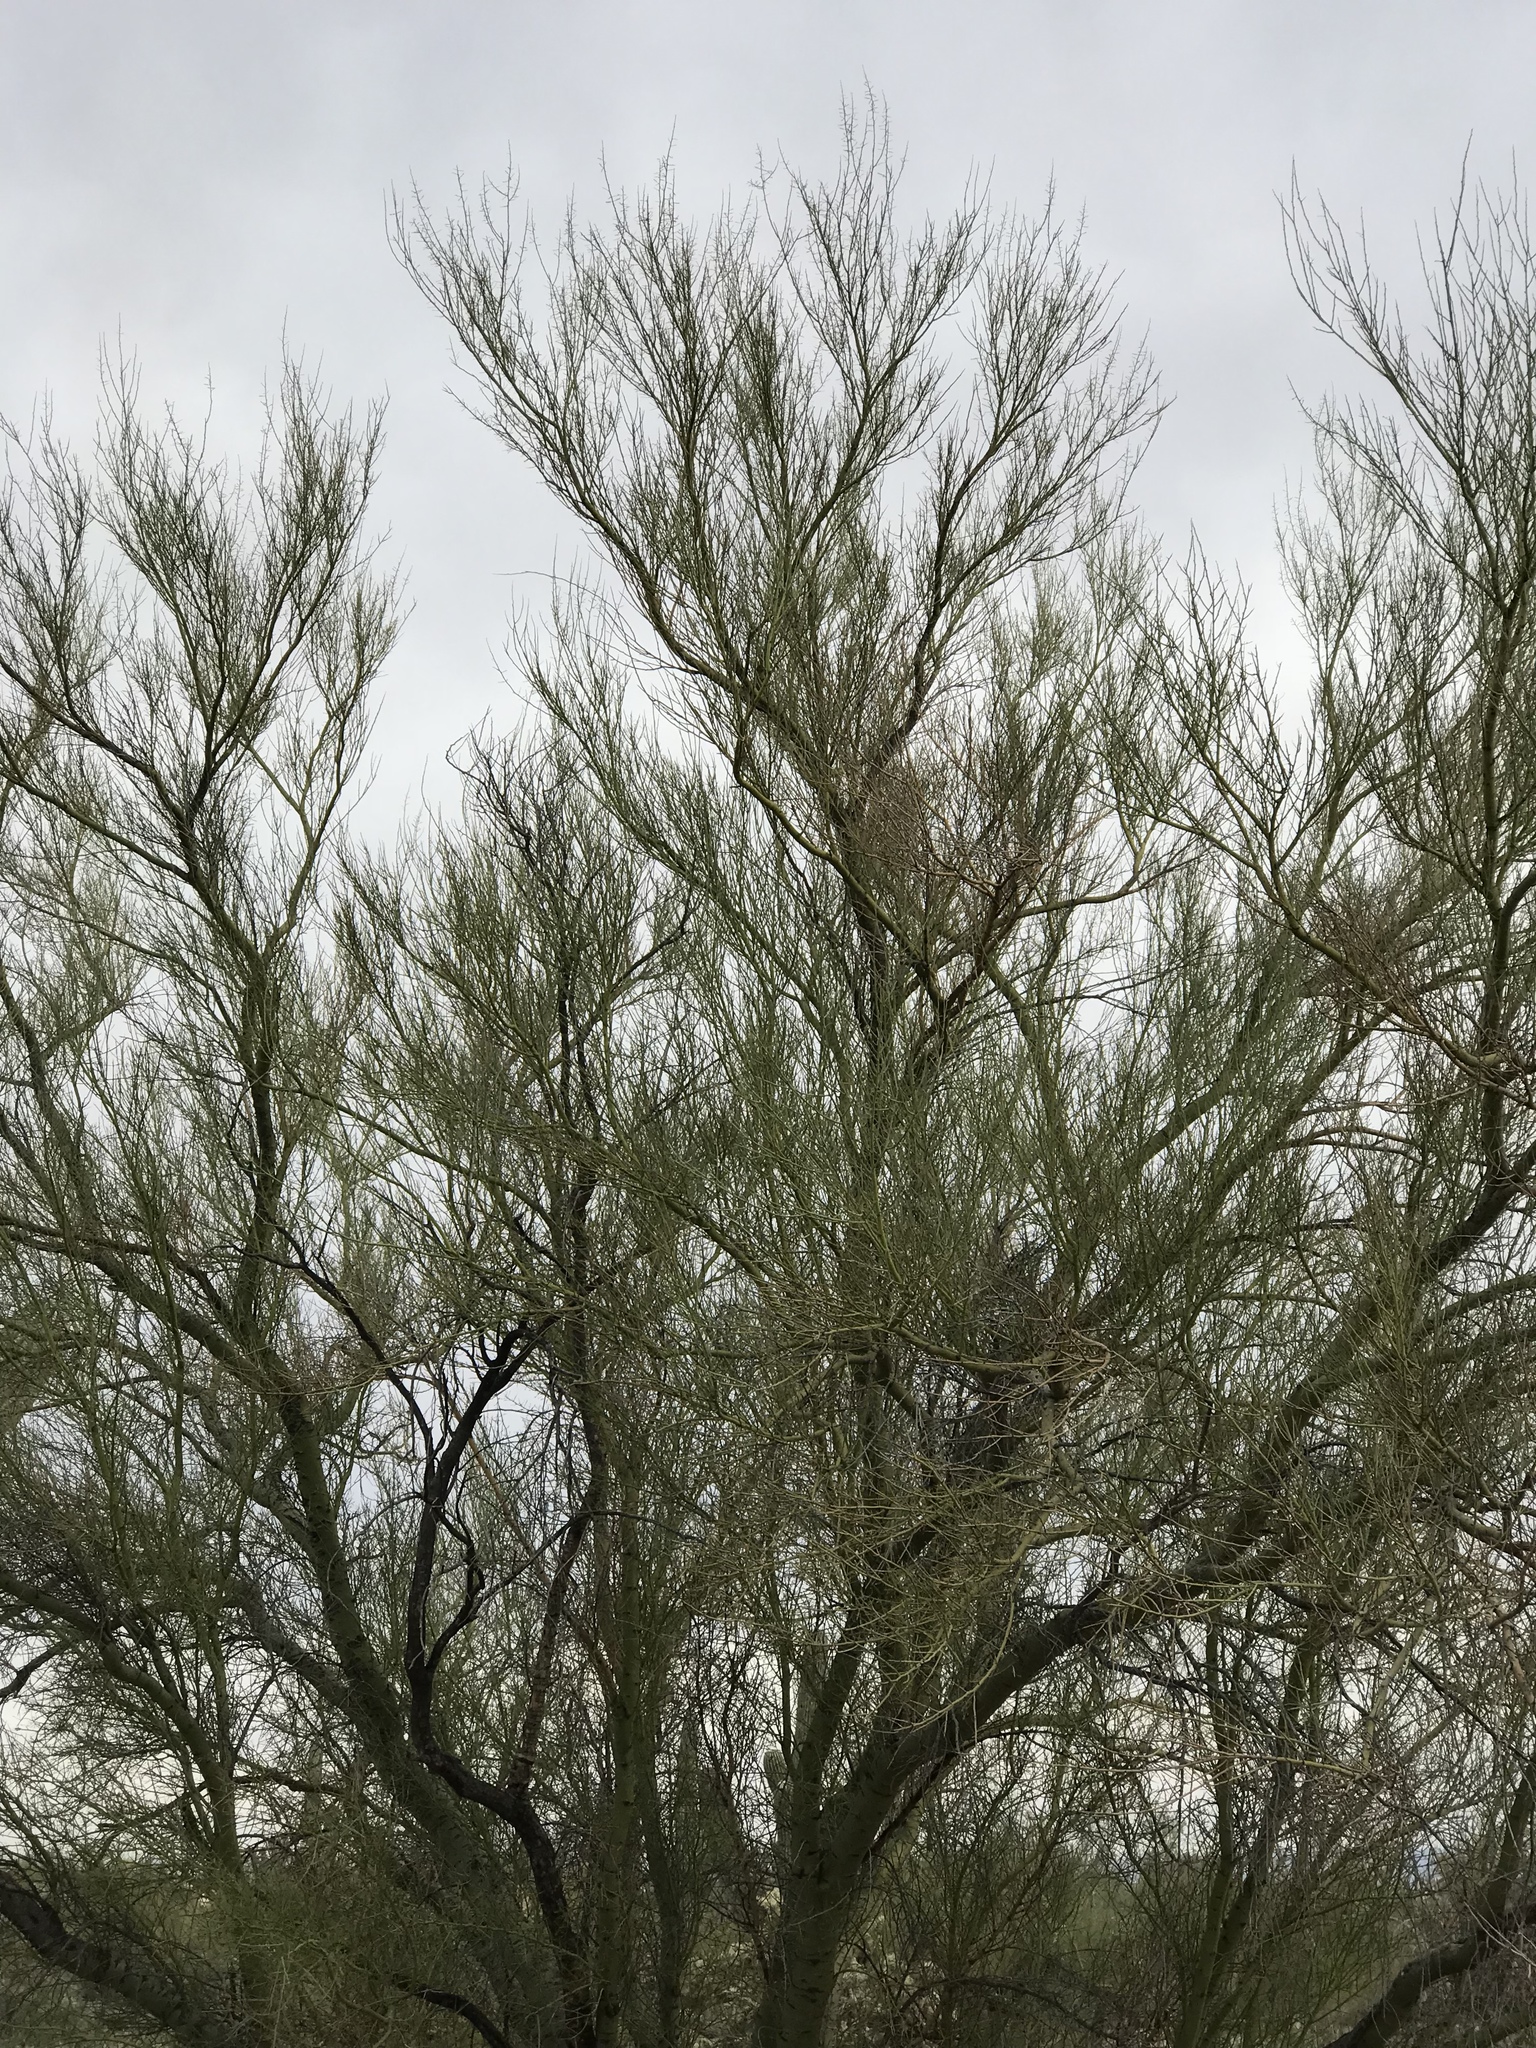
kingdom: Plantae
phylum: Tracheophyta
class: Magnoliopsida
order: Fabales
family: Fabaceae
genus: Parkinsonia
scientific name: Parkinsonia microphylla
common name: Yellow paloverde
